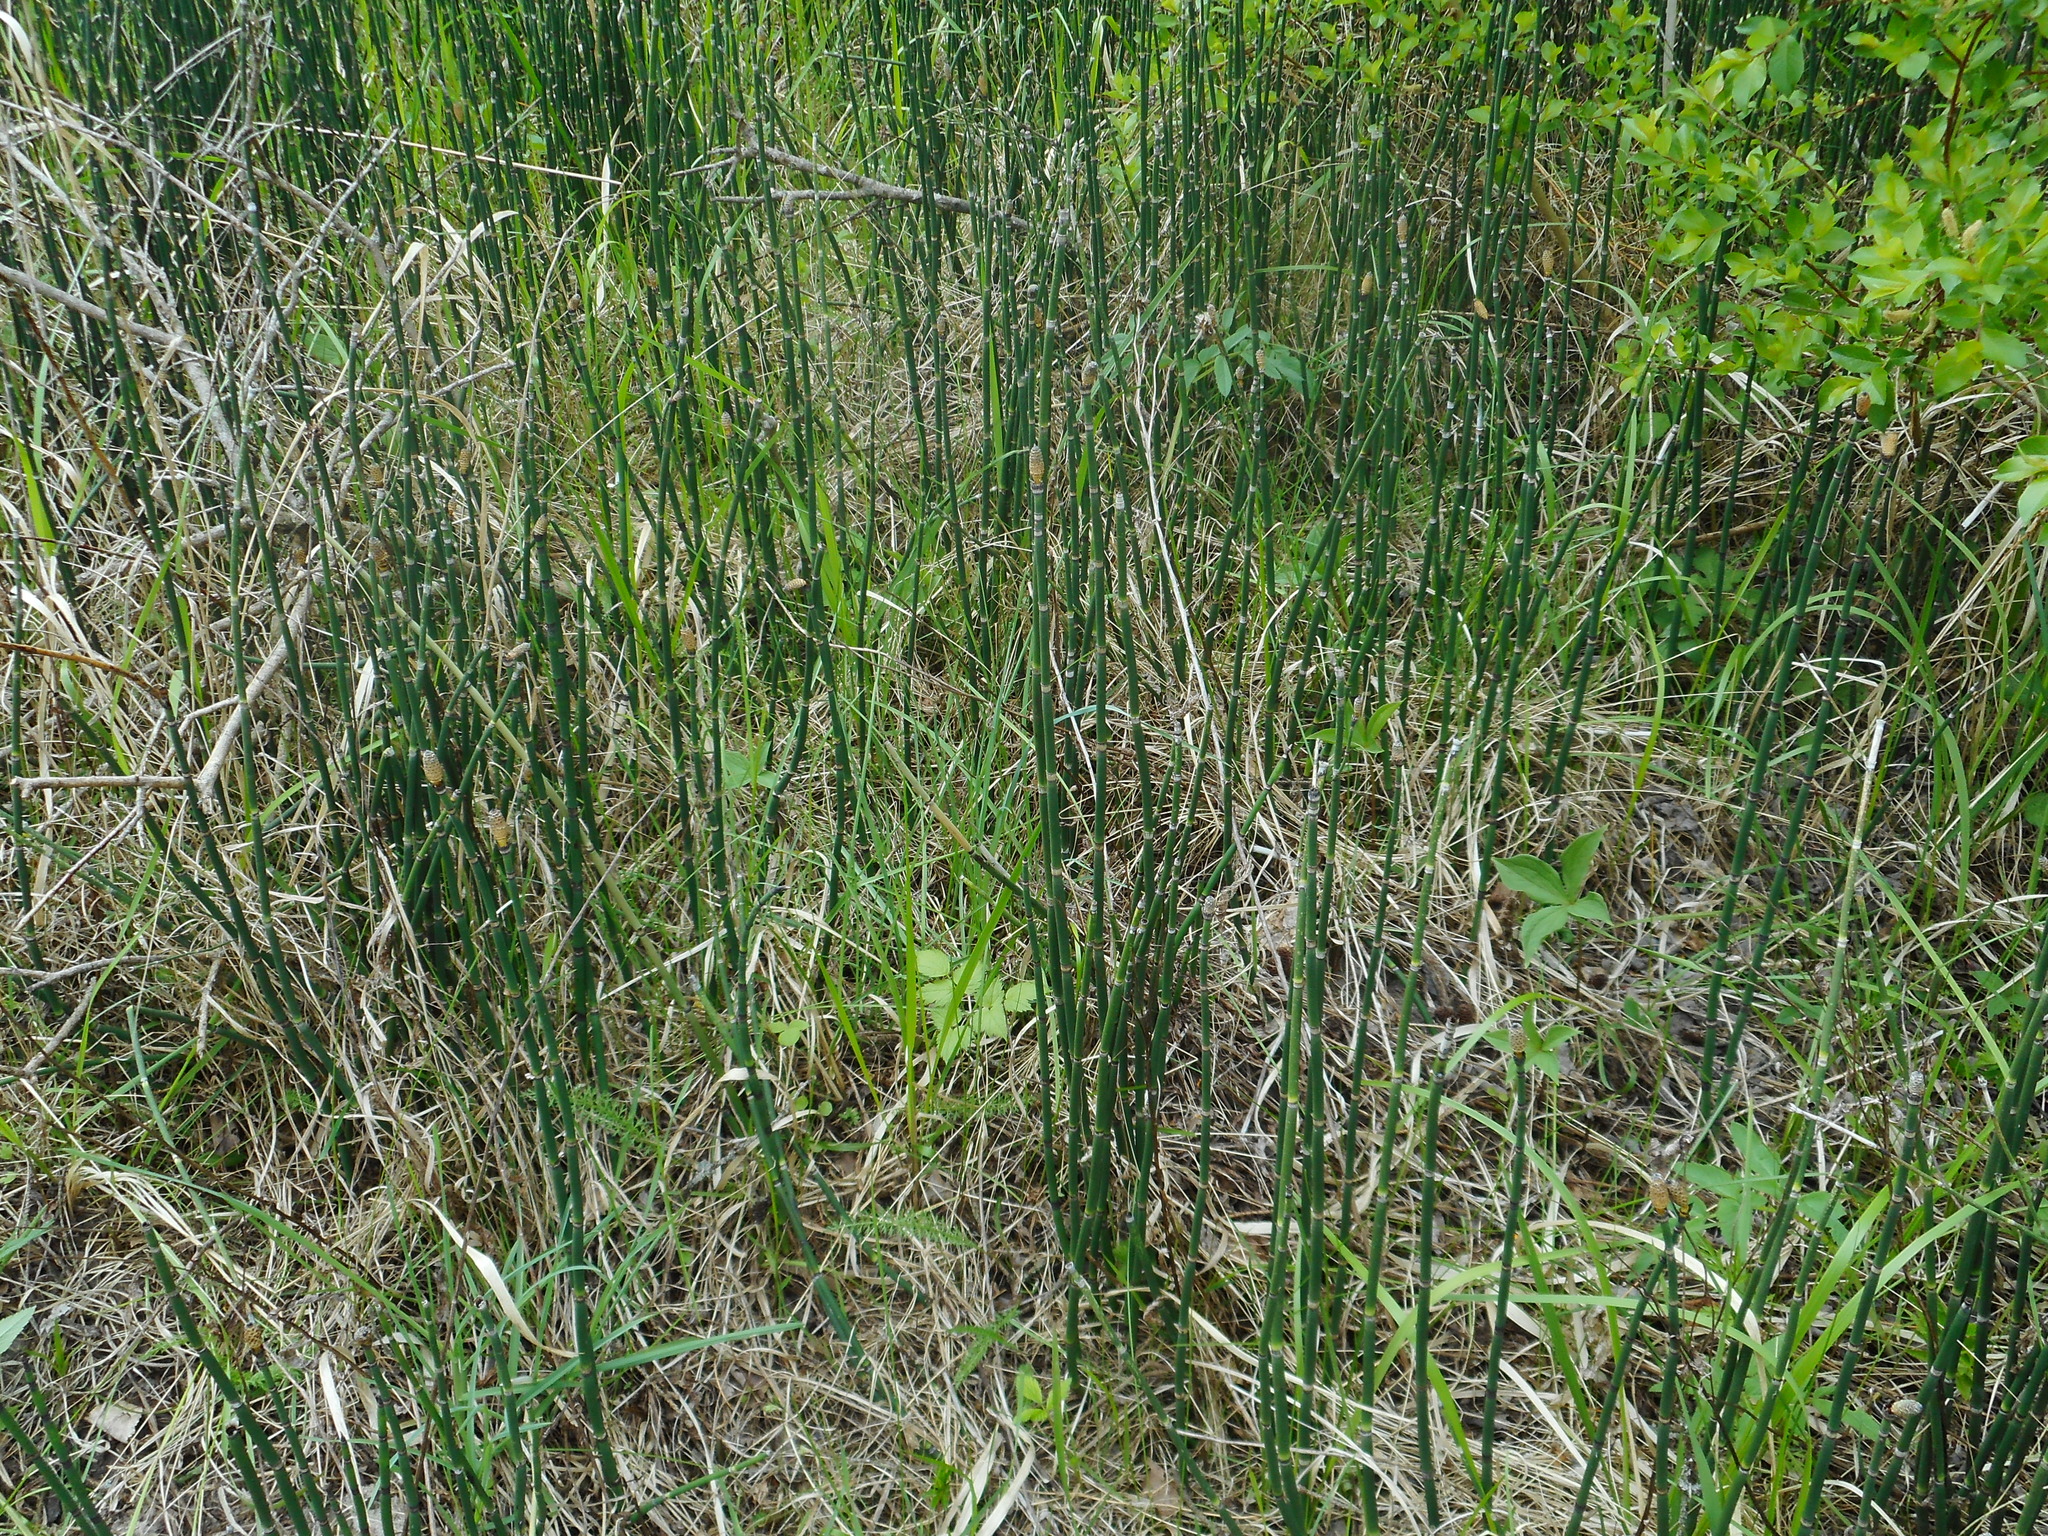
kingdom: Plantae
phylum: Tracheophyta
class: Polypodiopsida
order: Equisetales
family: Equisetaceae
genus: Equisetum
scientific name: Equisetum hyemale
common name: Rough horsetail
